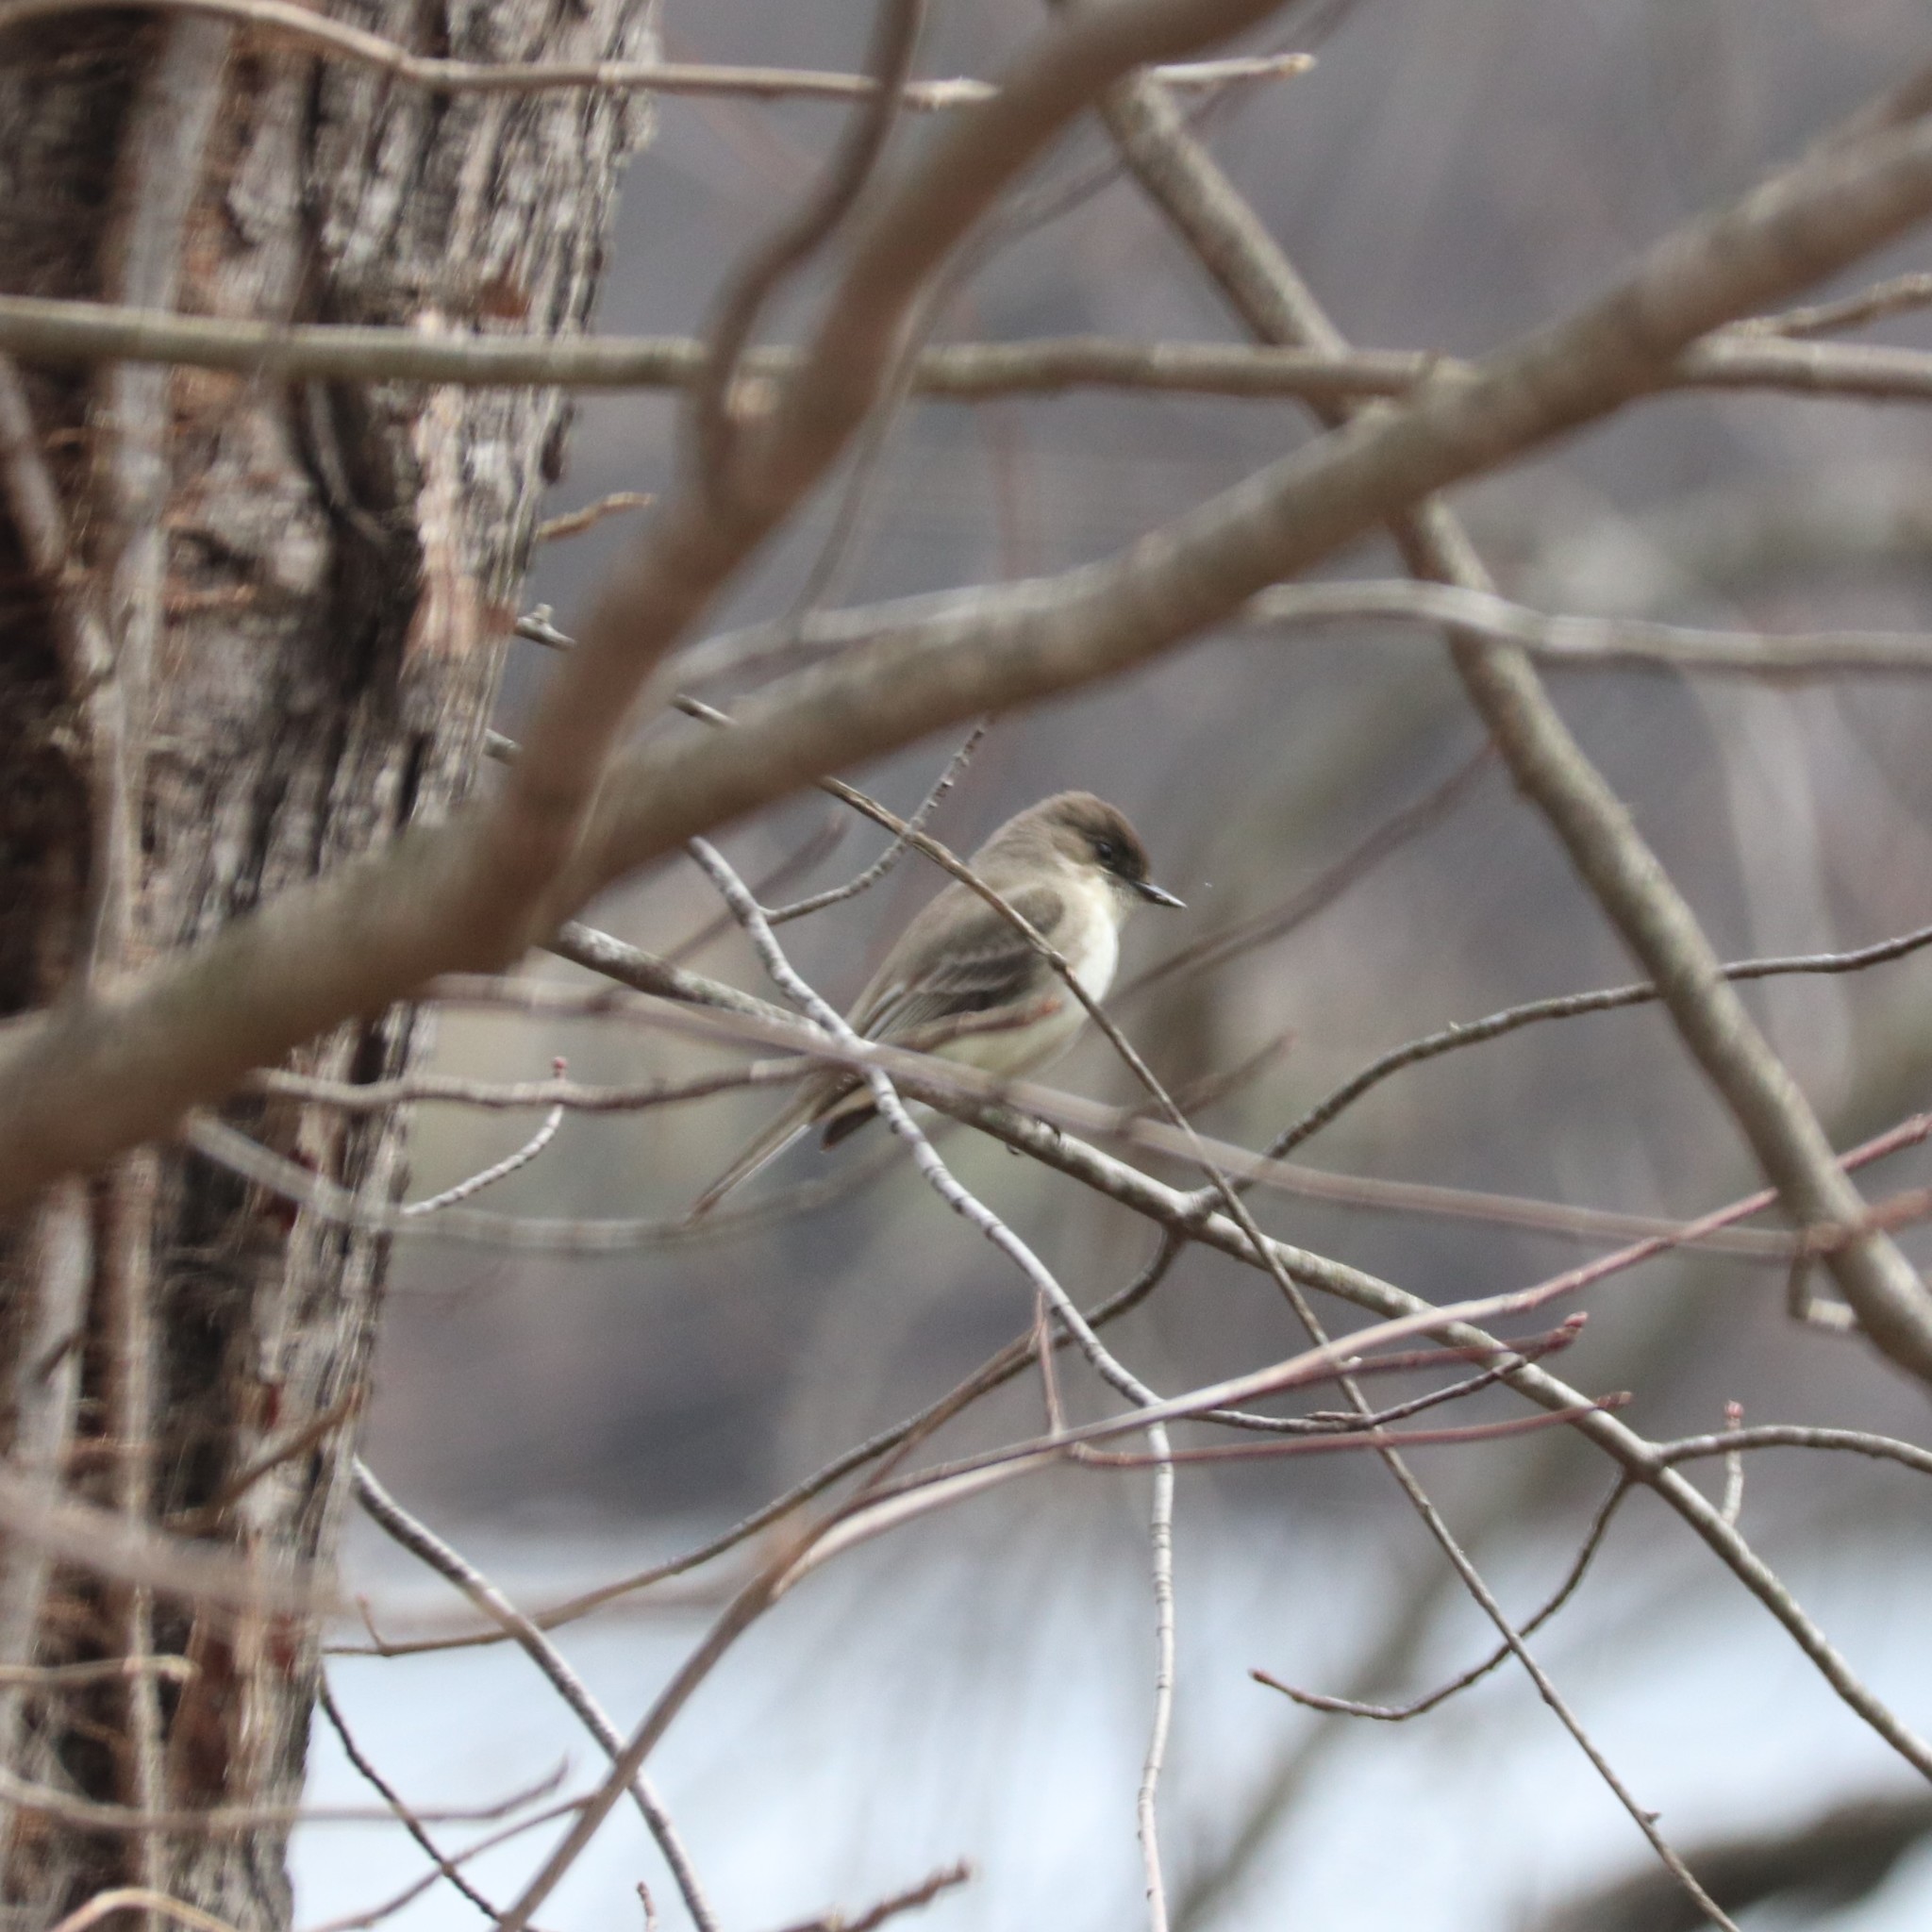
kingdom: Animalia
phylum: Chordata
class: Aves
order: Passeriformes
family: Tyrannidae
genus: Sayornis
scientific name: Sayornis phoebe
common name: Eastern phoebe
